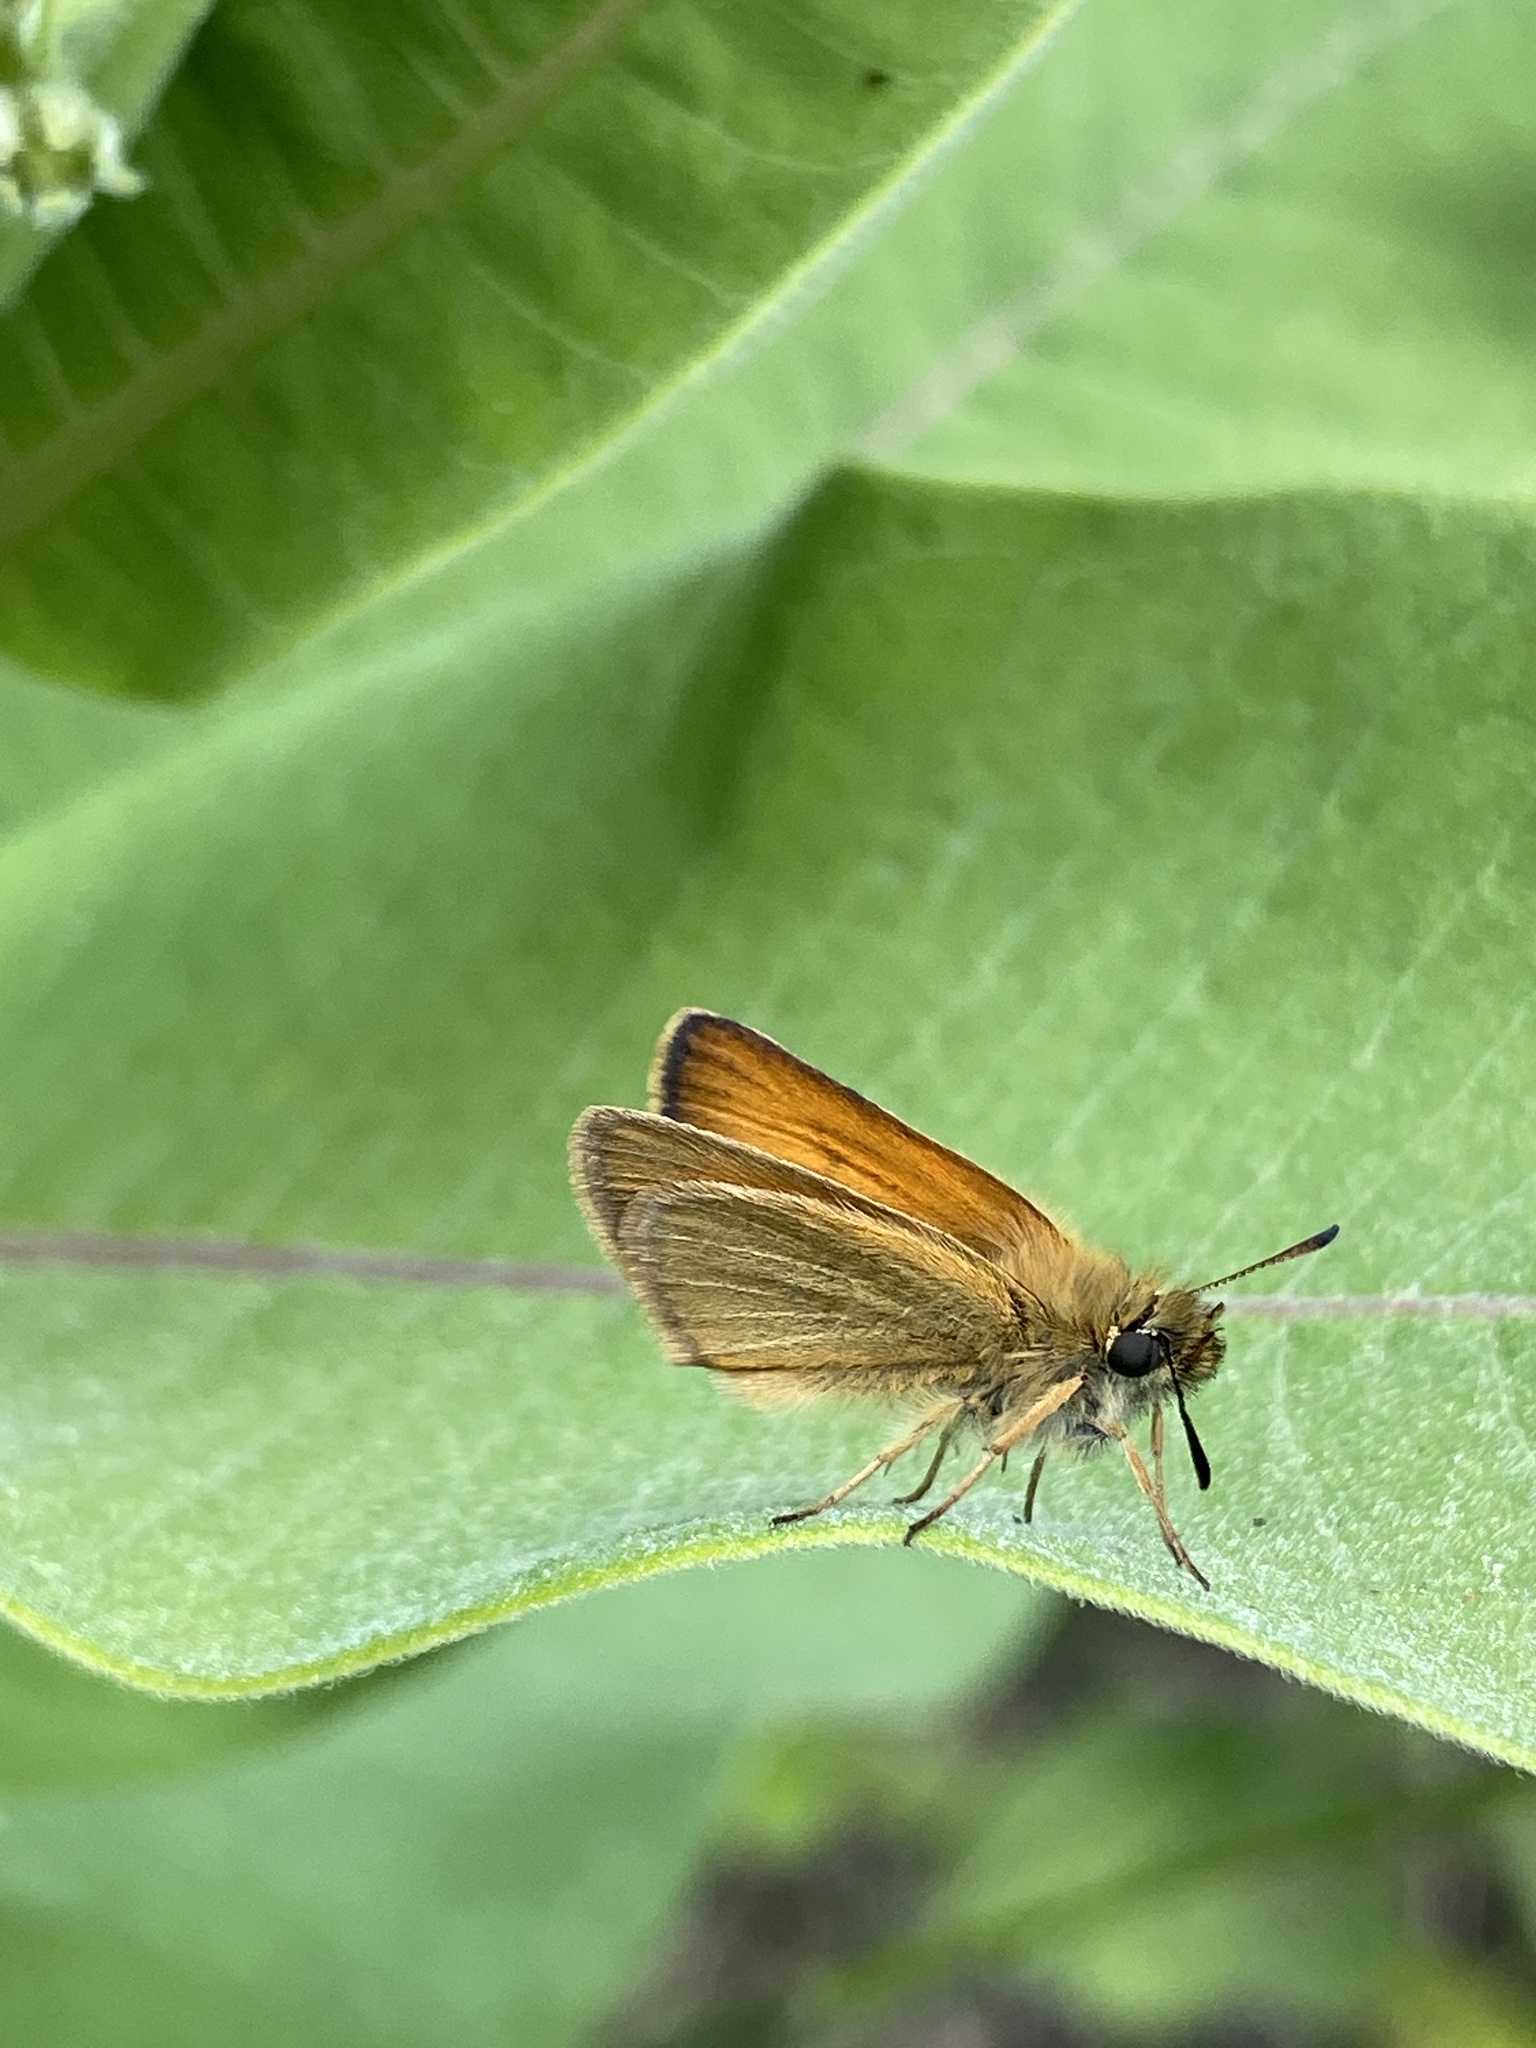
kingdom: Animalia
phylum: Arthropoda
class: Insecta
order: Lepidoptera
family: Hesperiidae
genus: Thymelicus
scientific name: Thymelicus lineola
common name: Essex skipper
